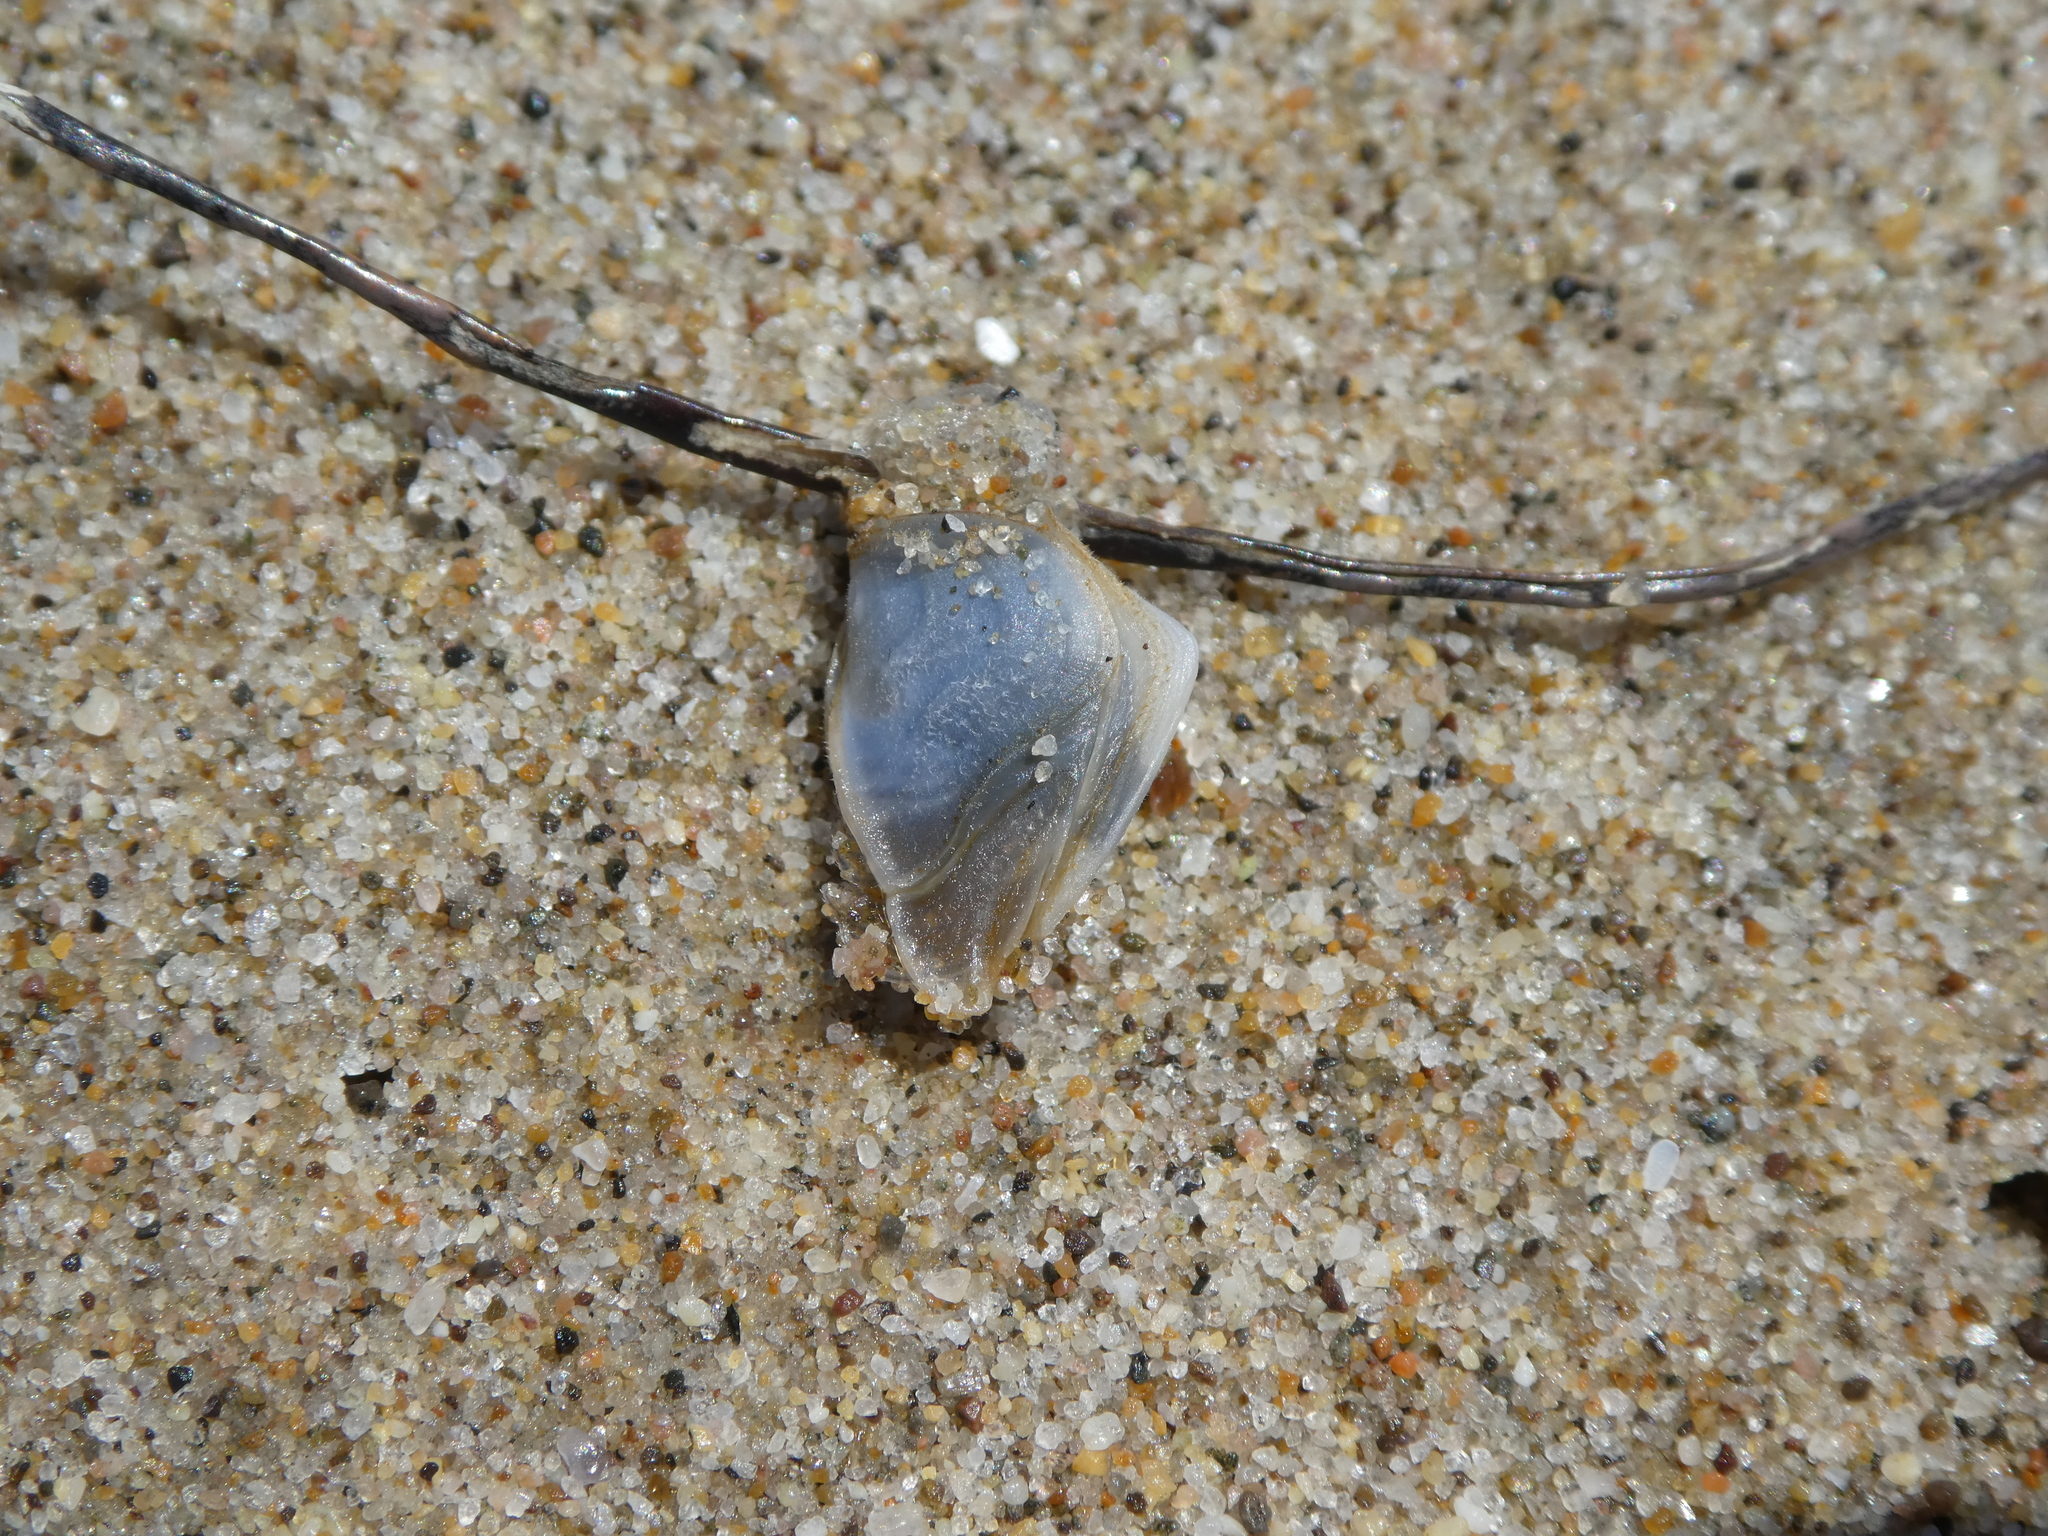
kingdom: Animalia
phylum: Arthropoda
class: Maxillopoda
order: Pedunculata
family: Lepadidae
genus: Dosima
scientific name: Dosima fascicularis
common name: Buoy barnacle
